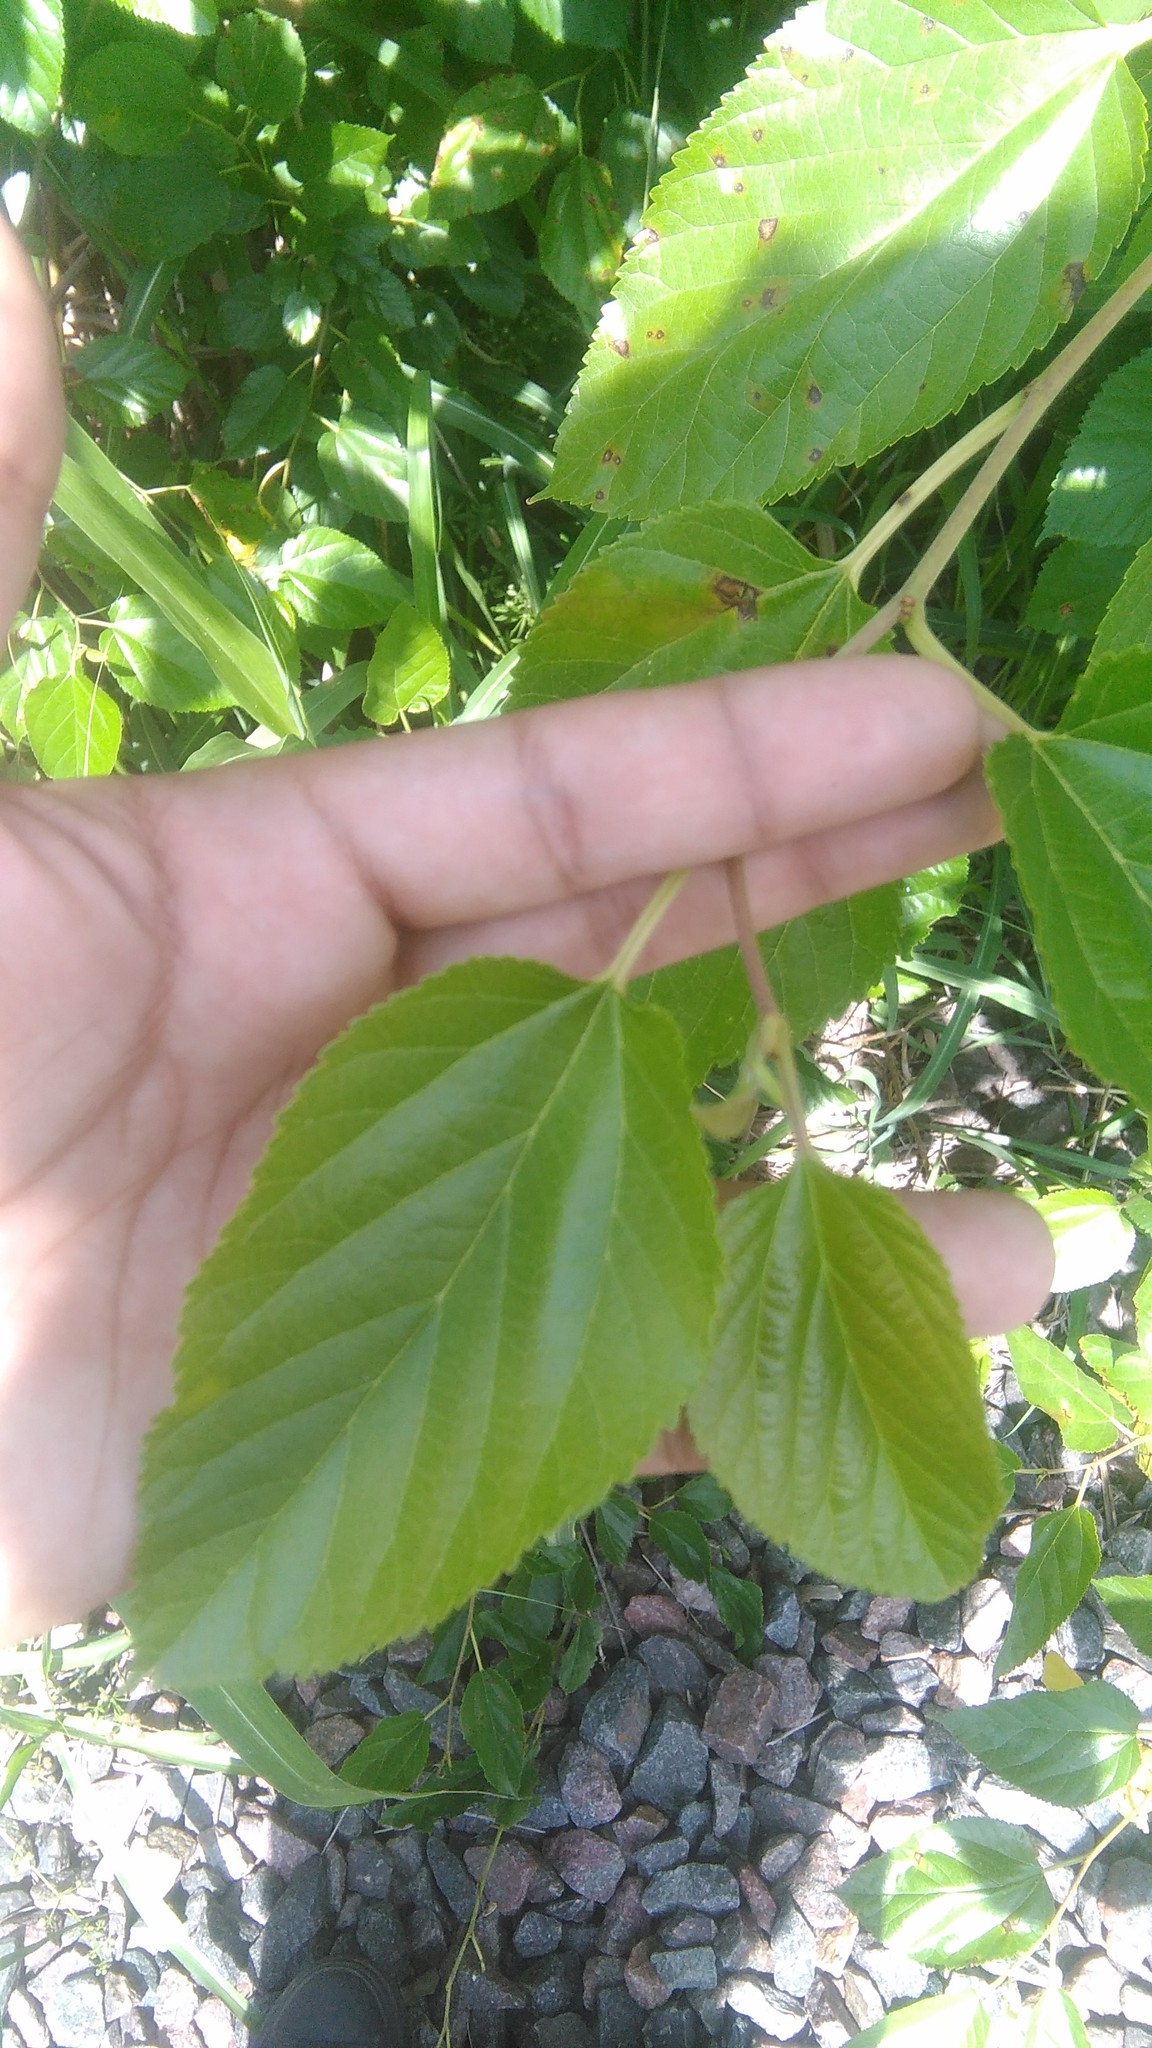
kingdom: Plantae
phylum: Tracheophyta
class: Magnoliopsida
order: Rosales
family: Moraceae
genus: Morus
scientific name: Morus alba
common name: White mulberry
